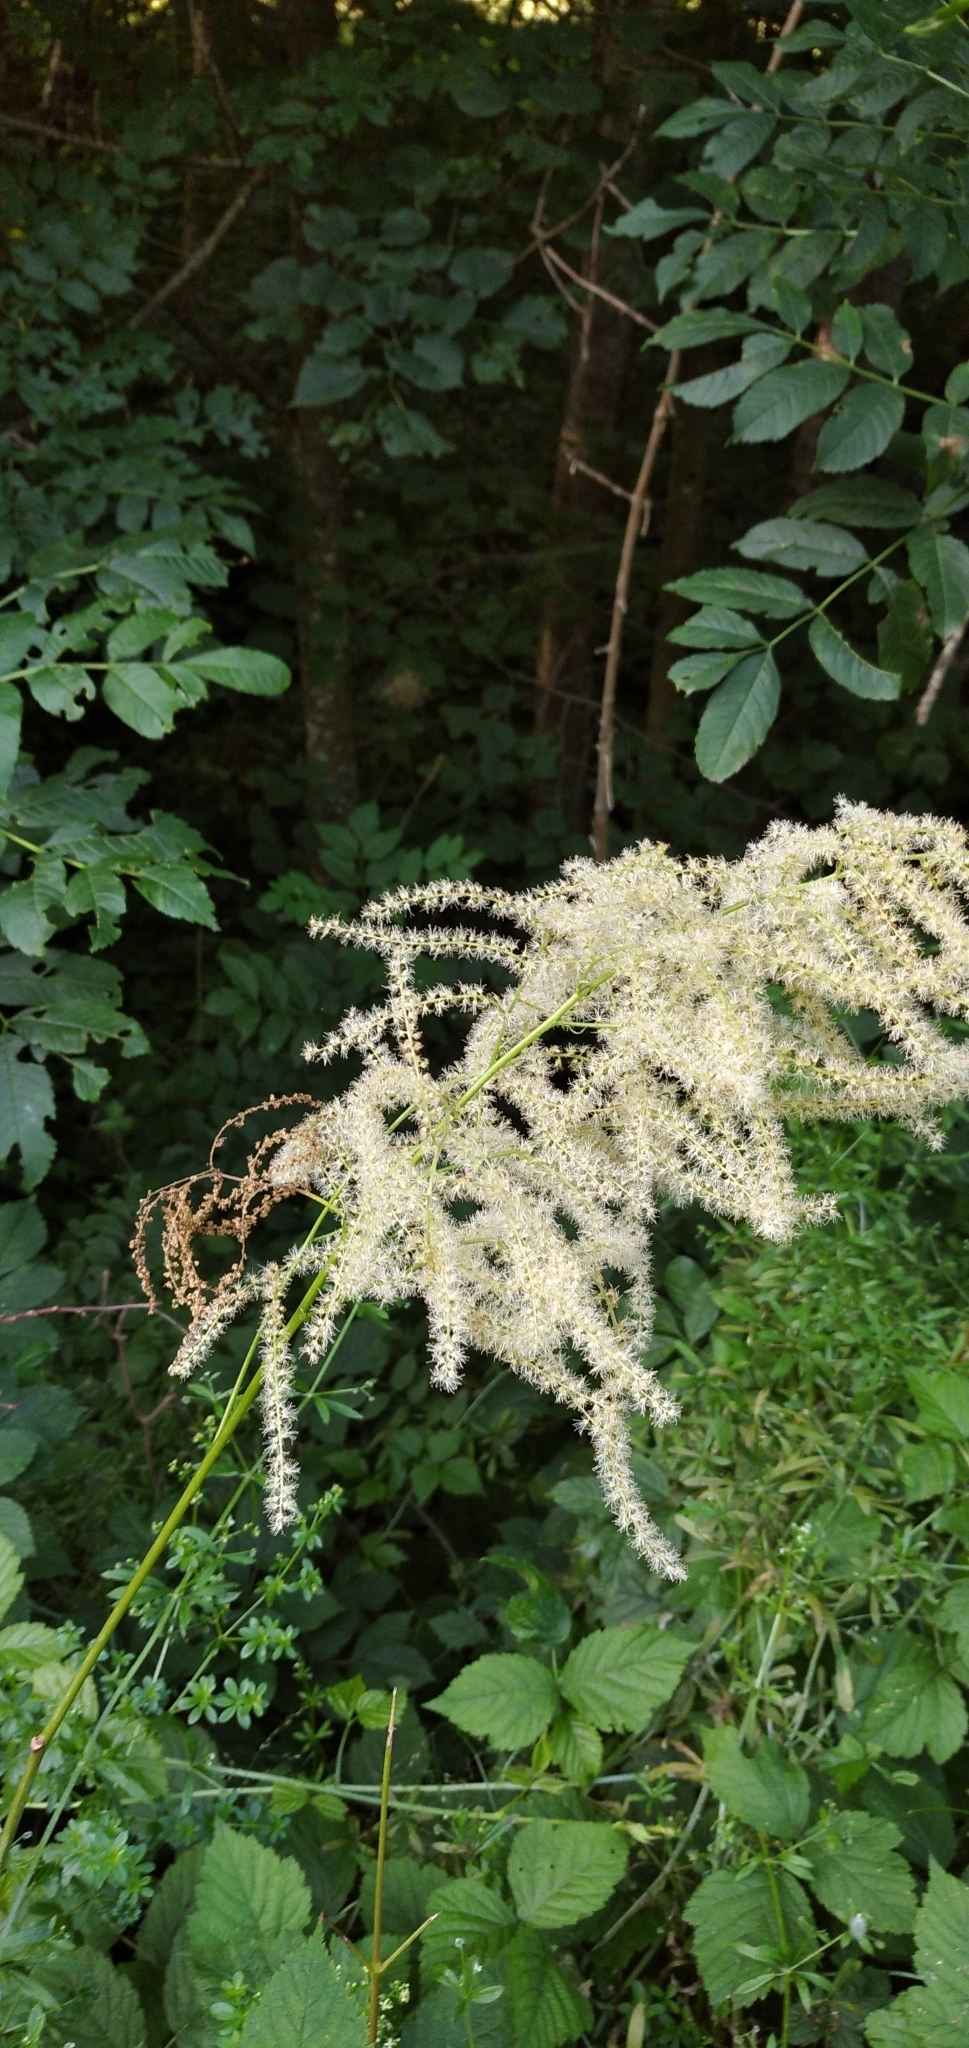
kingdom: Plantae
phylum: Tracheophyta
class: Magnoliopsida
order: Rosales
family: Rosaceae
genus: Aruncus
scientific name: Aruncus dioicus
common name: Buck's-beard
